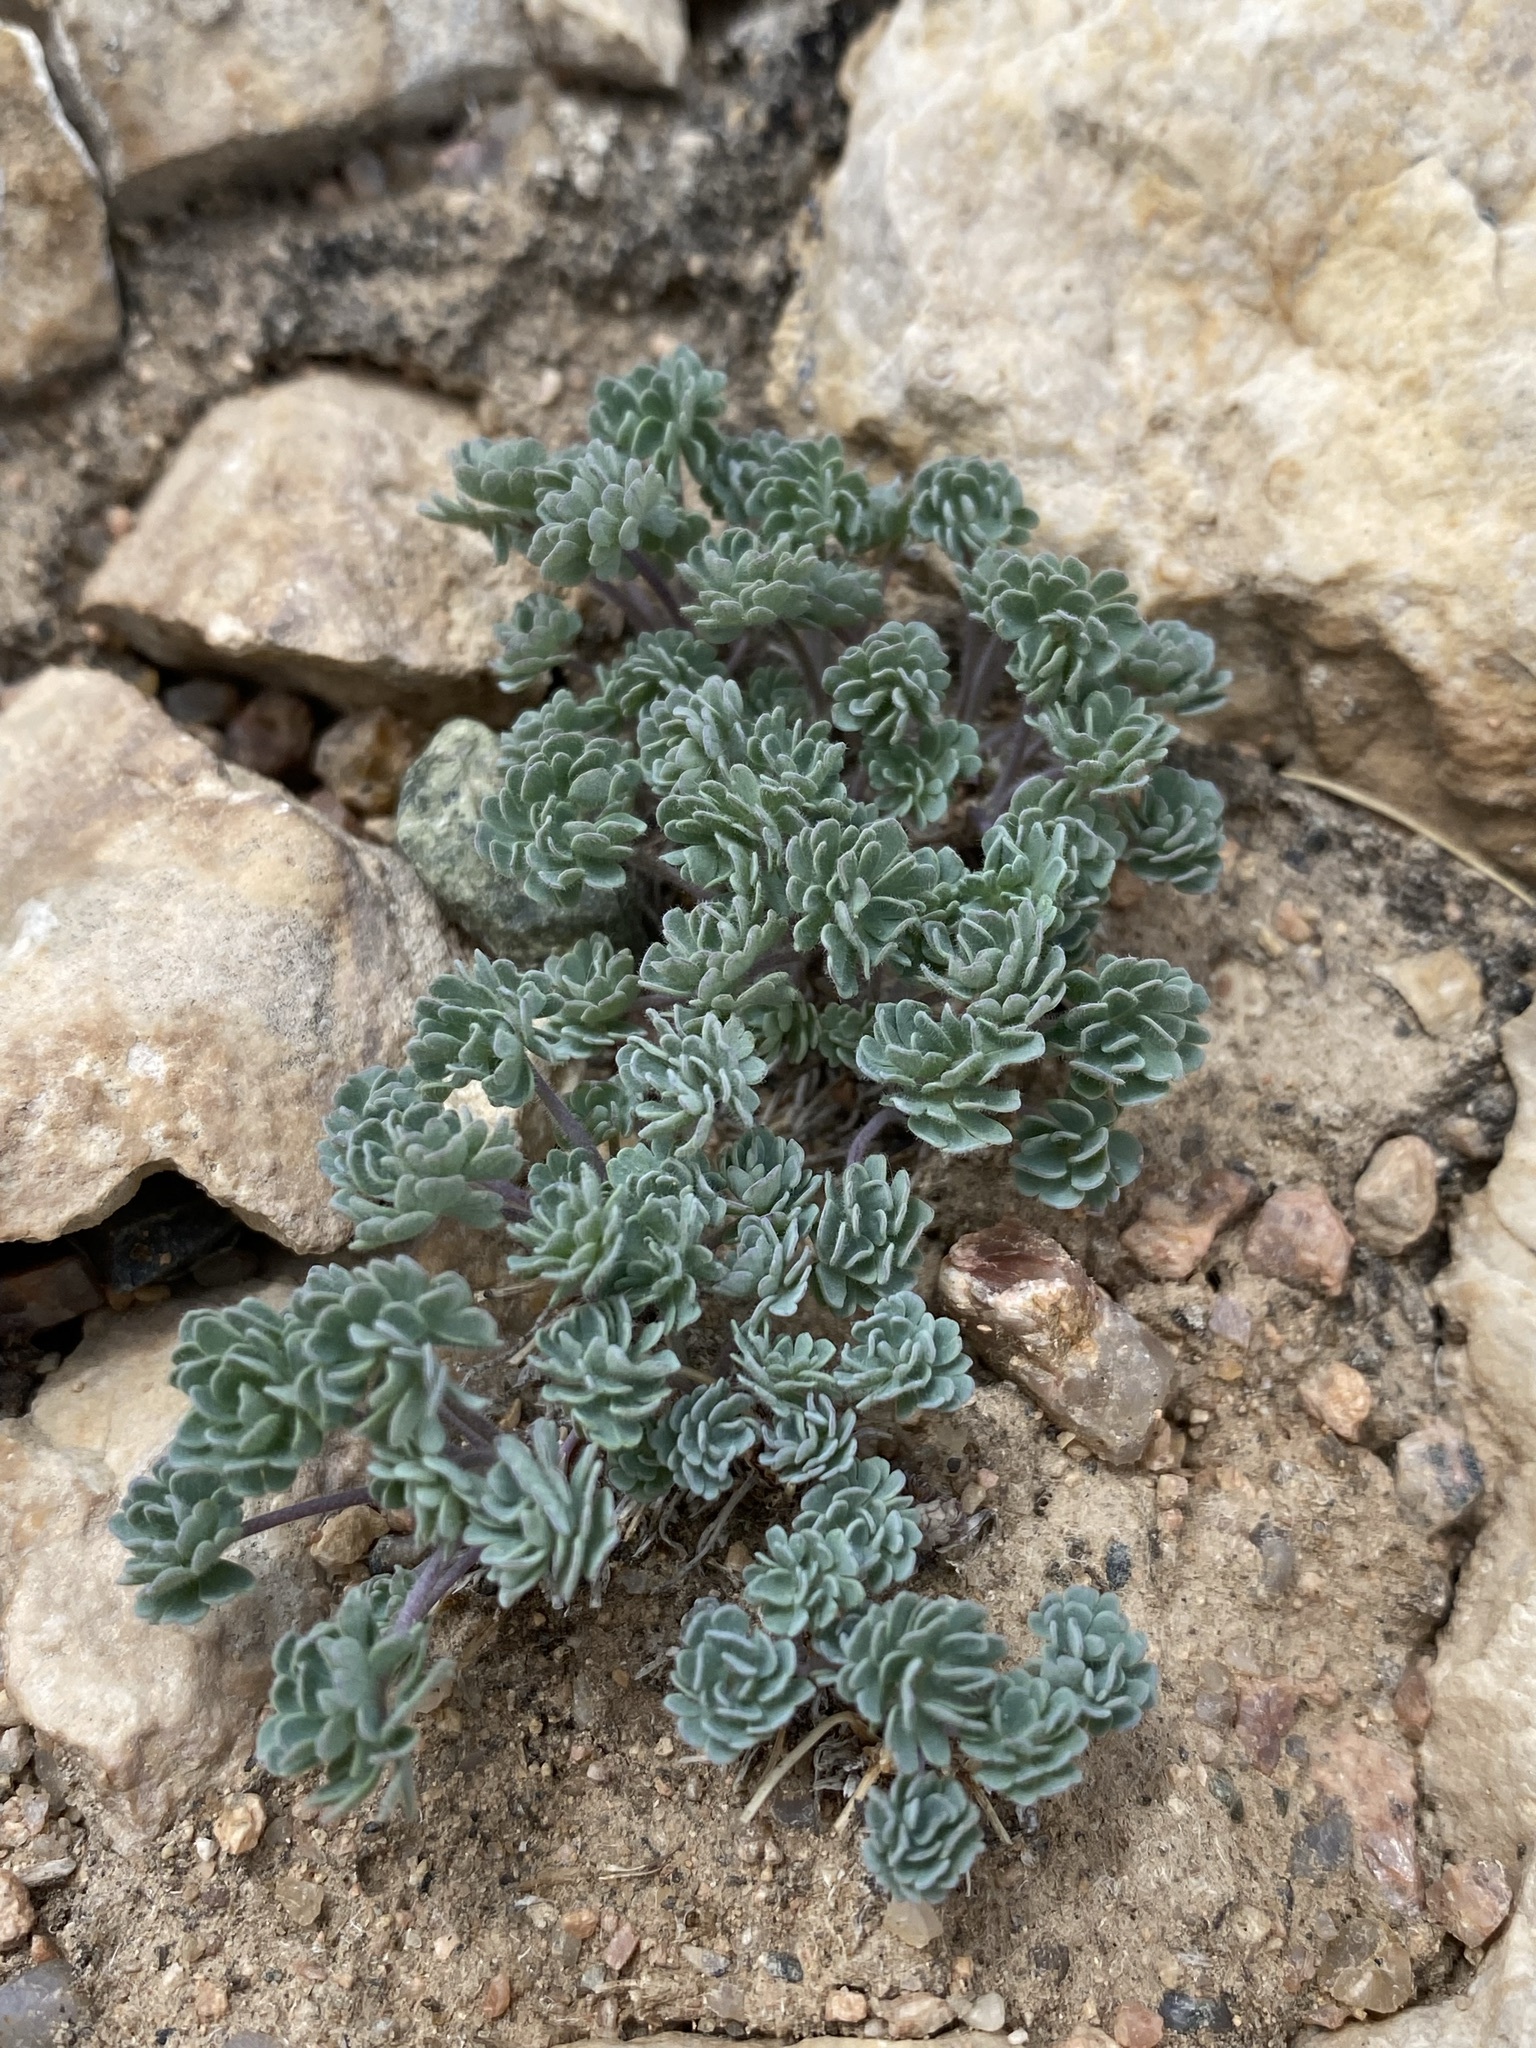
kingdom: Plantae
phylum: Tracheophyta
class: Magnoliopsida
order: Ranunculales
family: Ranunculaceae
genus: Aquilegia
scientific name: Aquilegia jonesii
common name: Jones' columbine
